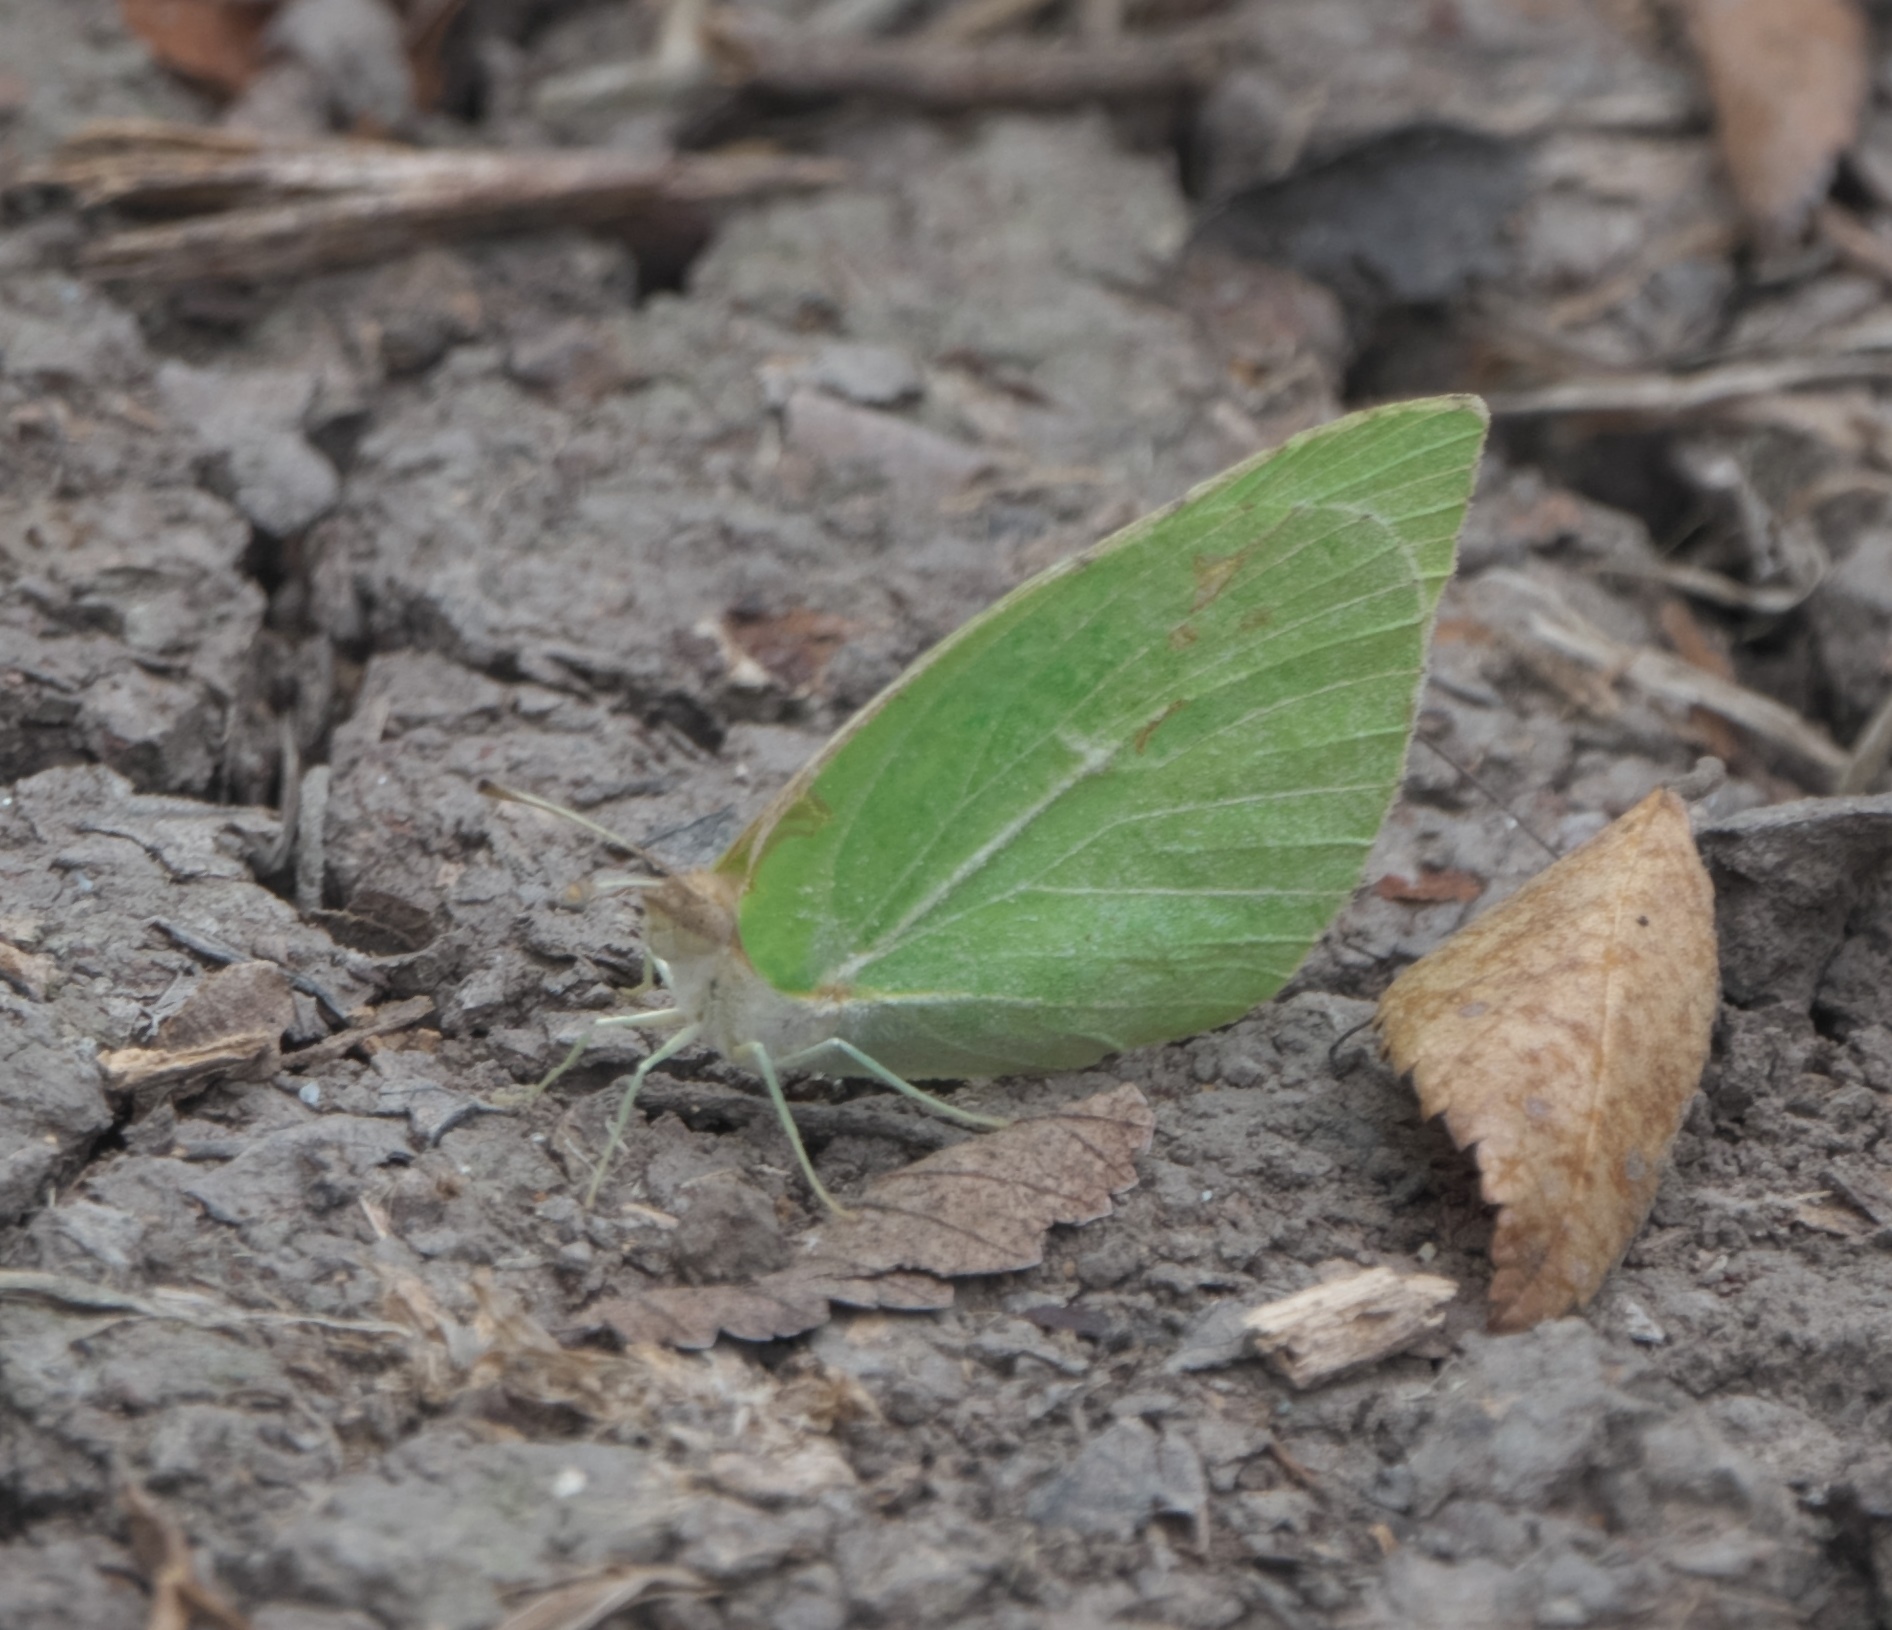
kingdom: Animalia
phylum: Arthropoda
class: Insecta
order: Lepidoptera
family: Pieridae
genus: Kricogonia
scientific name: Kricogonia lyside
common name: Guayacan sulphur,
